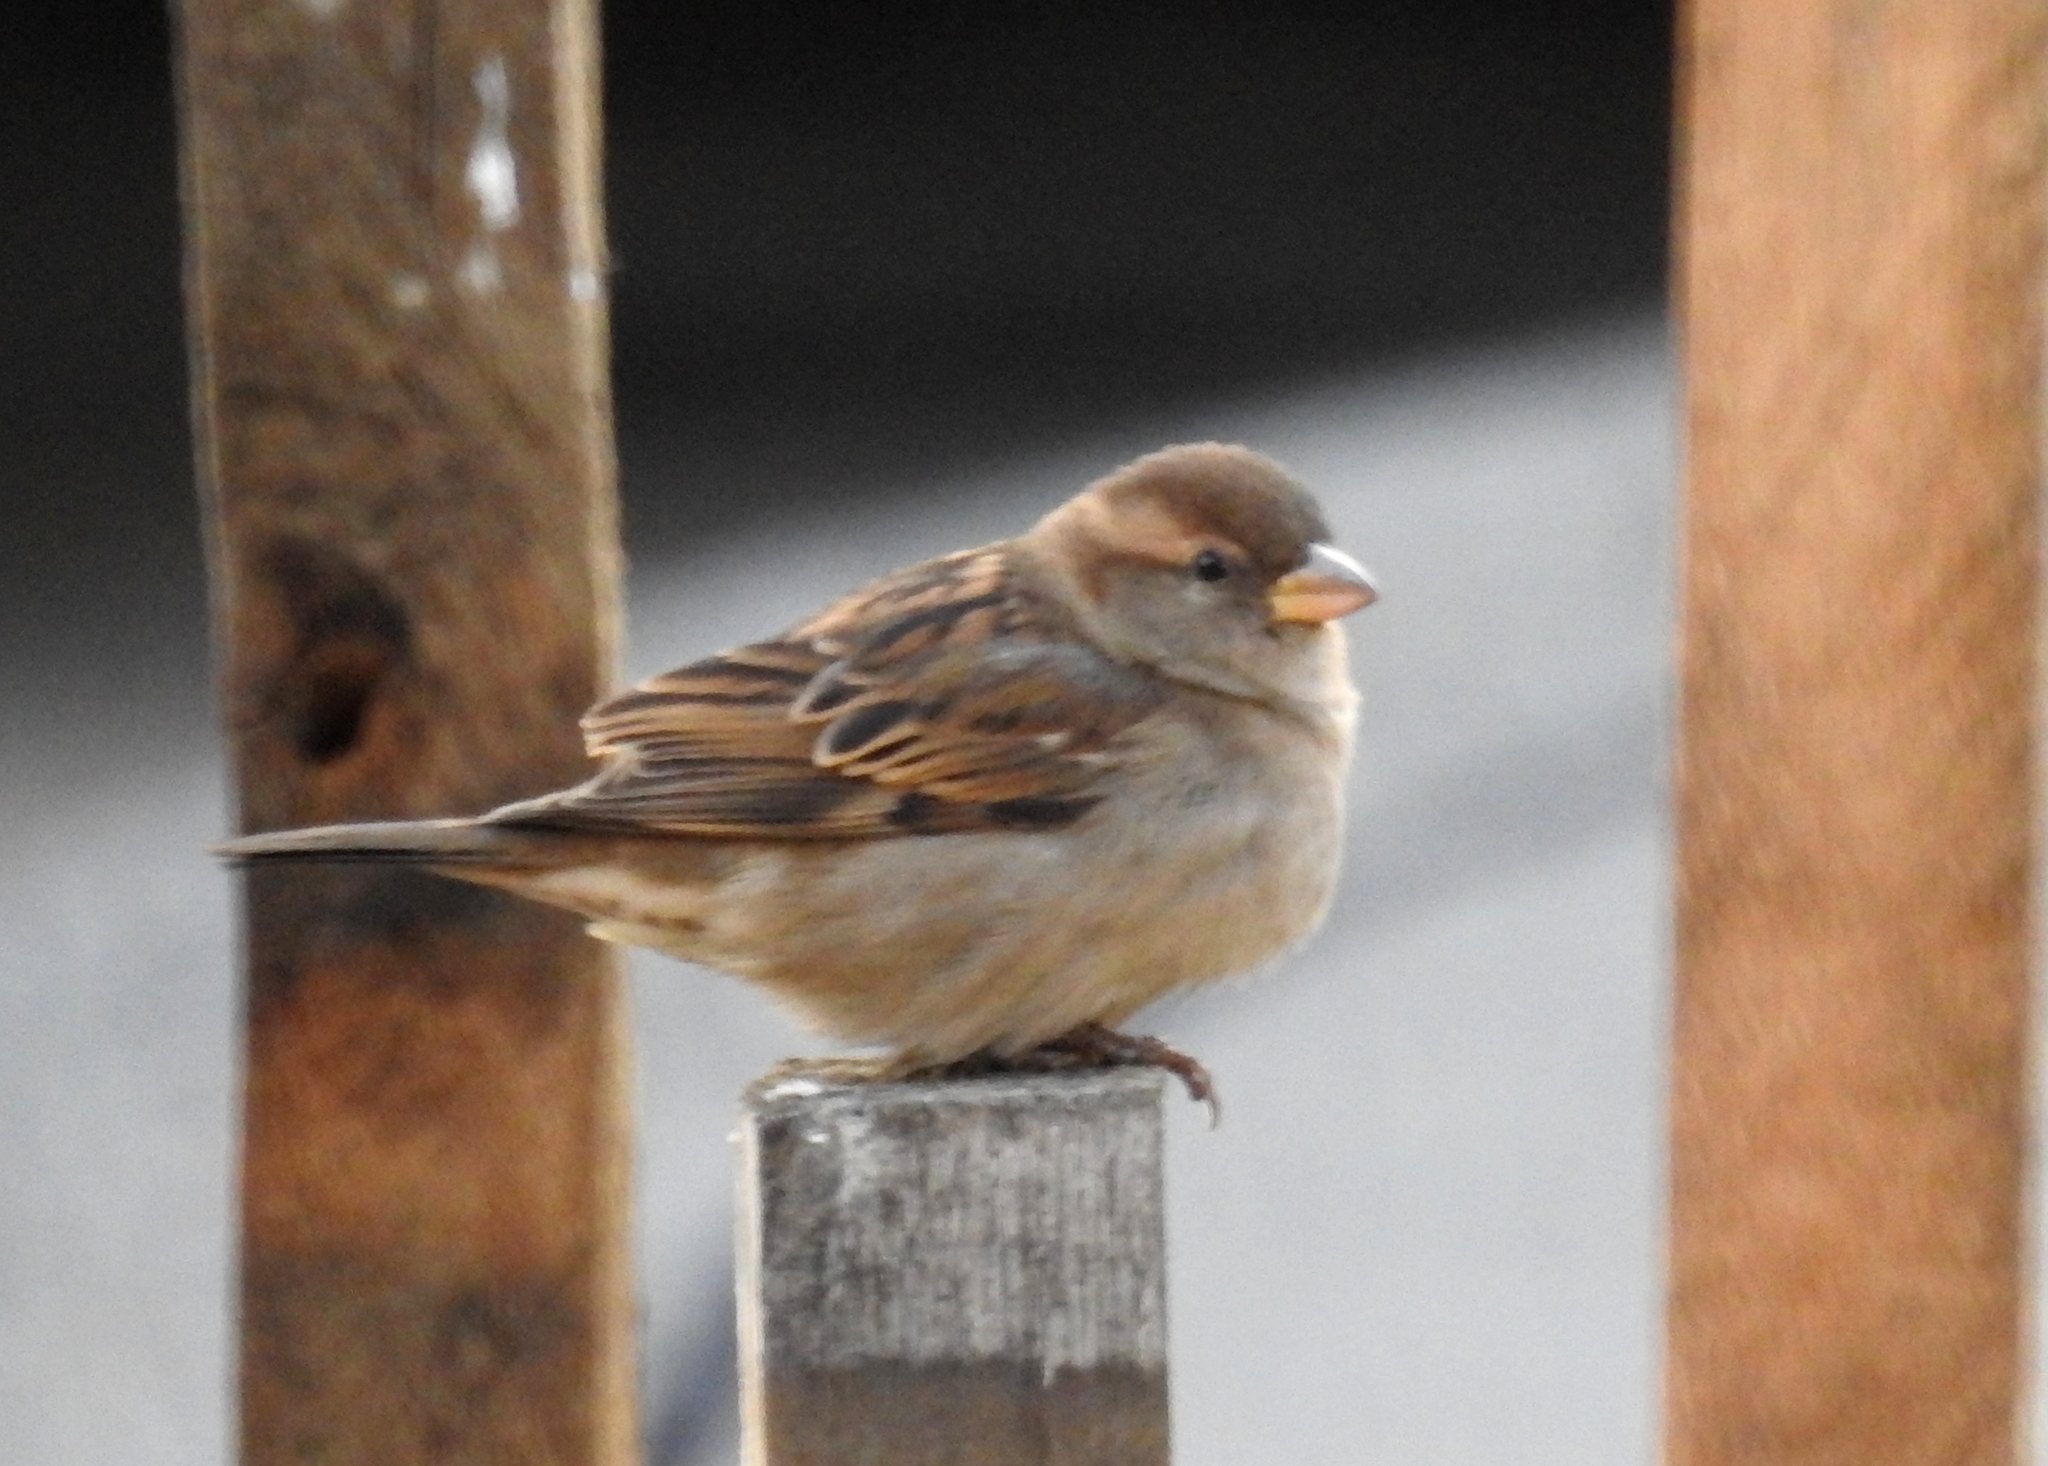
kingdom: Animalia
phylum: Chordata
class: Aves
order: Passeriformes
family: Passeridae
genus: Passer
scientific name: Passer domesticus
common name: House sparrow
